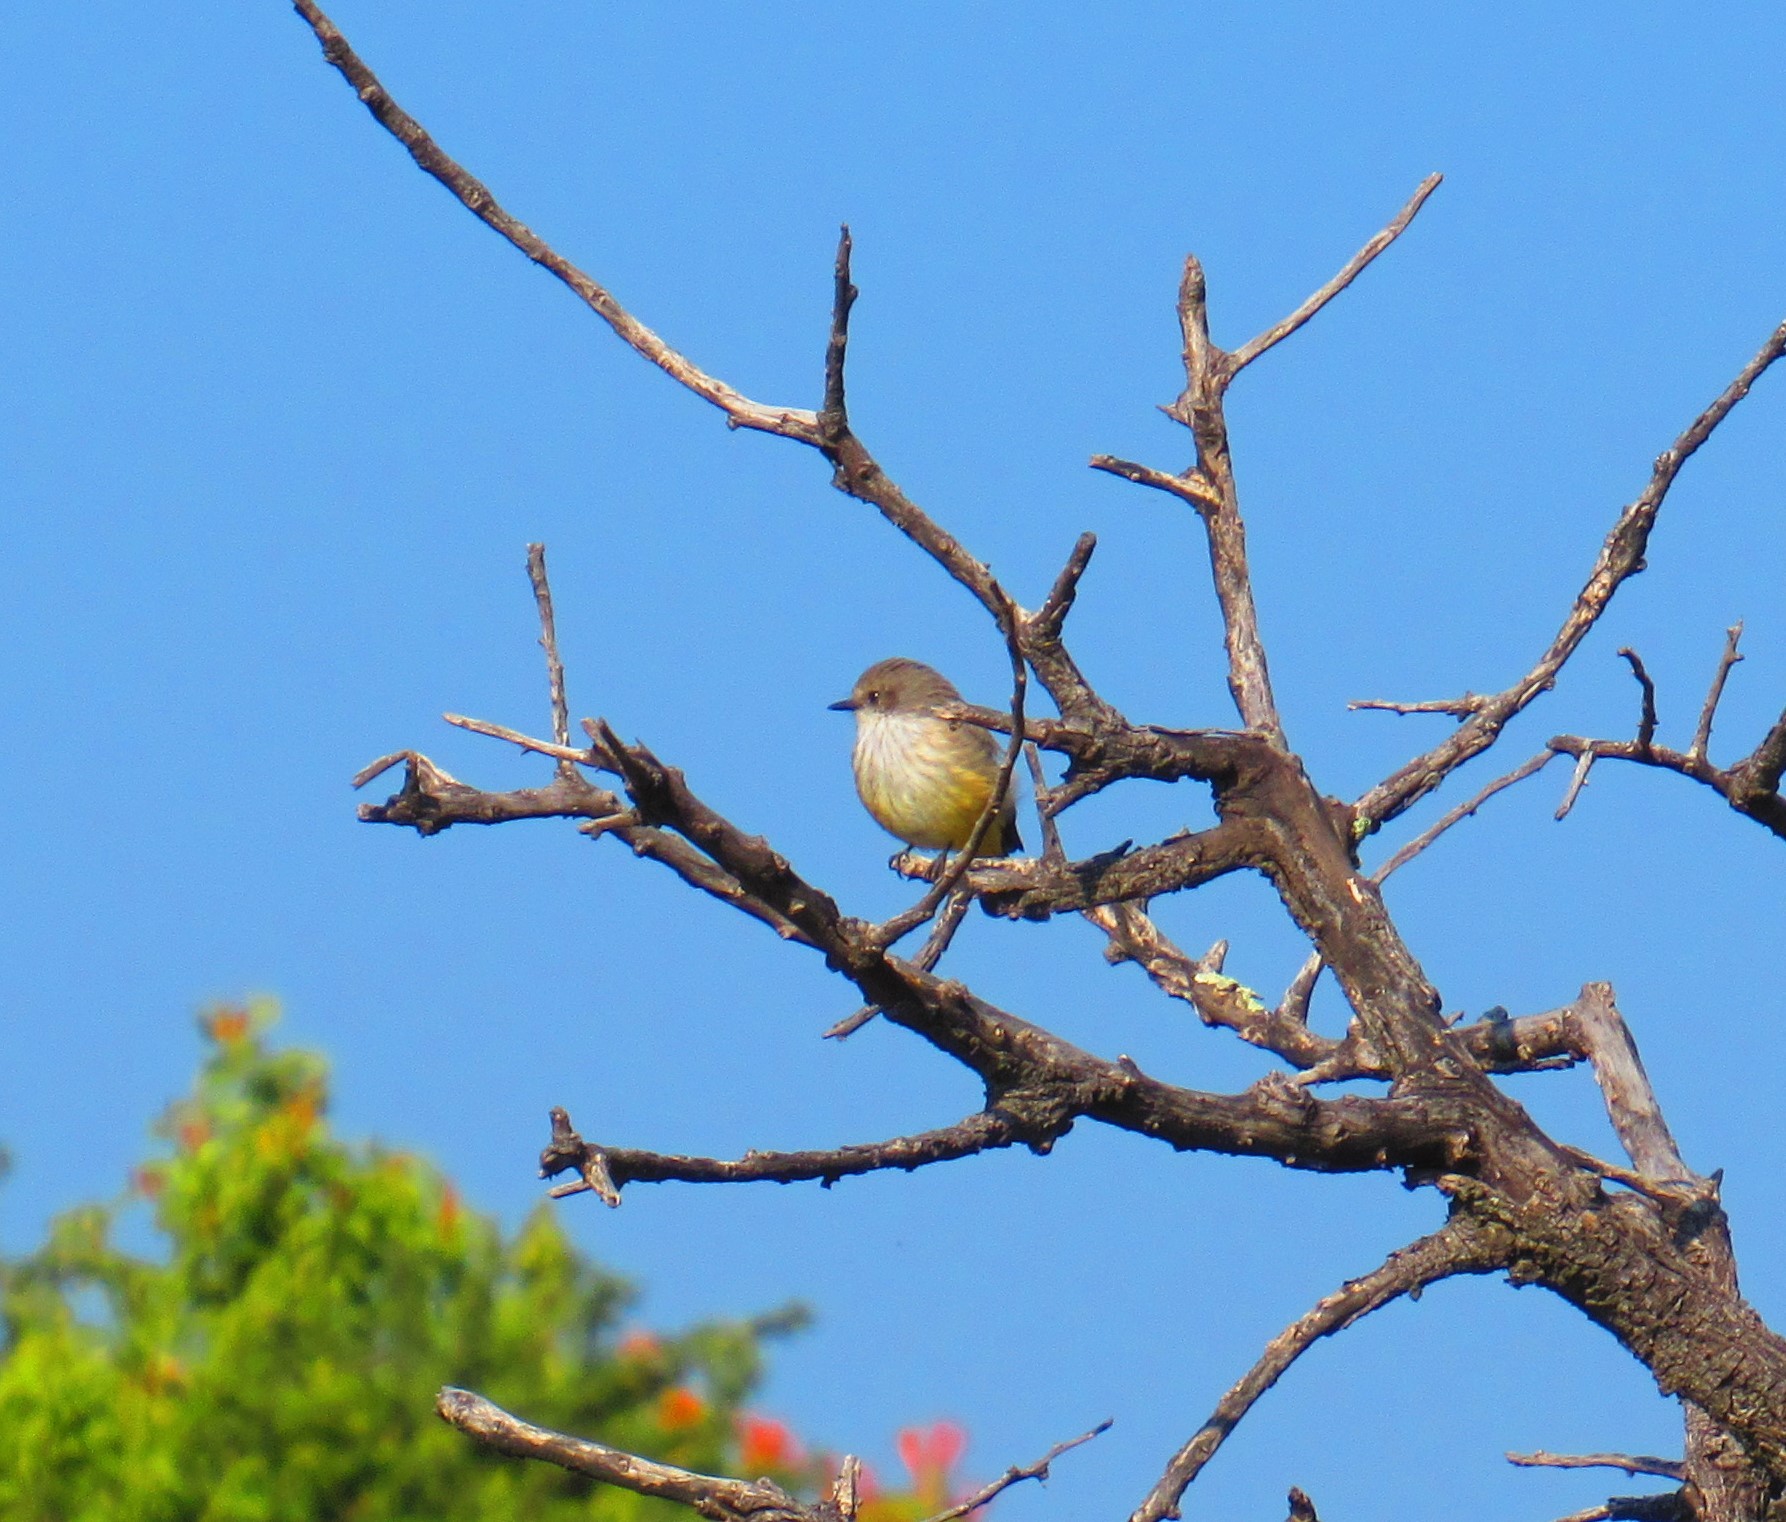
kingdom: Animalia
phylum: Chordata
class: Aves
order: Passeriformes
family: Tyrannidae
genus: Pyrocephalus
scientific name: Pyrocephalus rubinus
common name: Vermilion flycatcher
